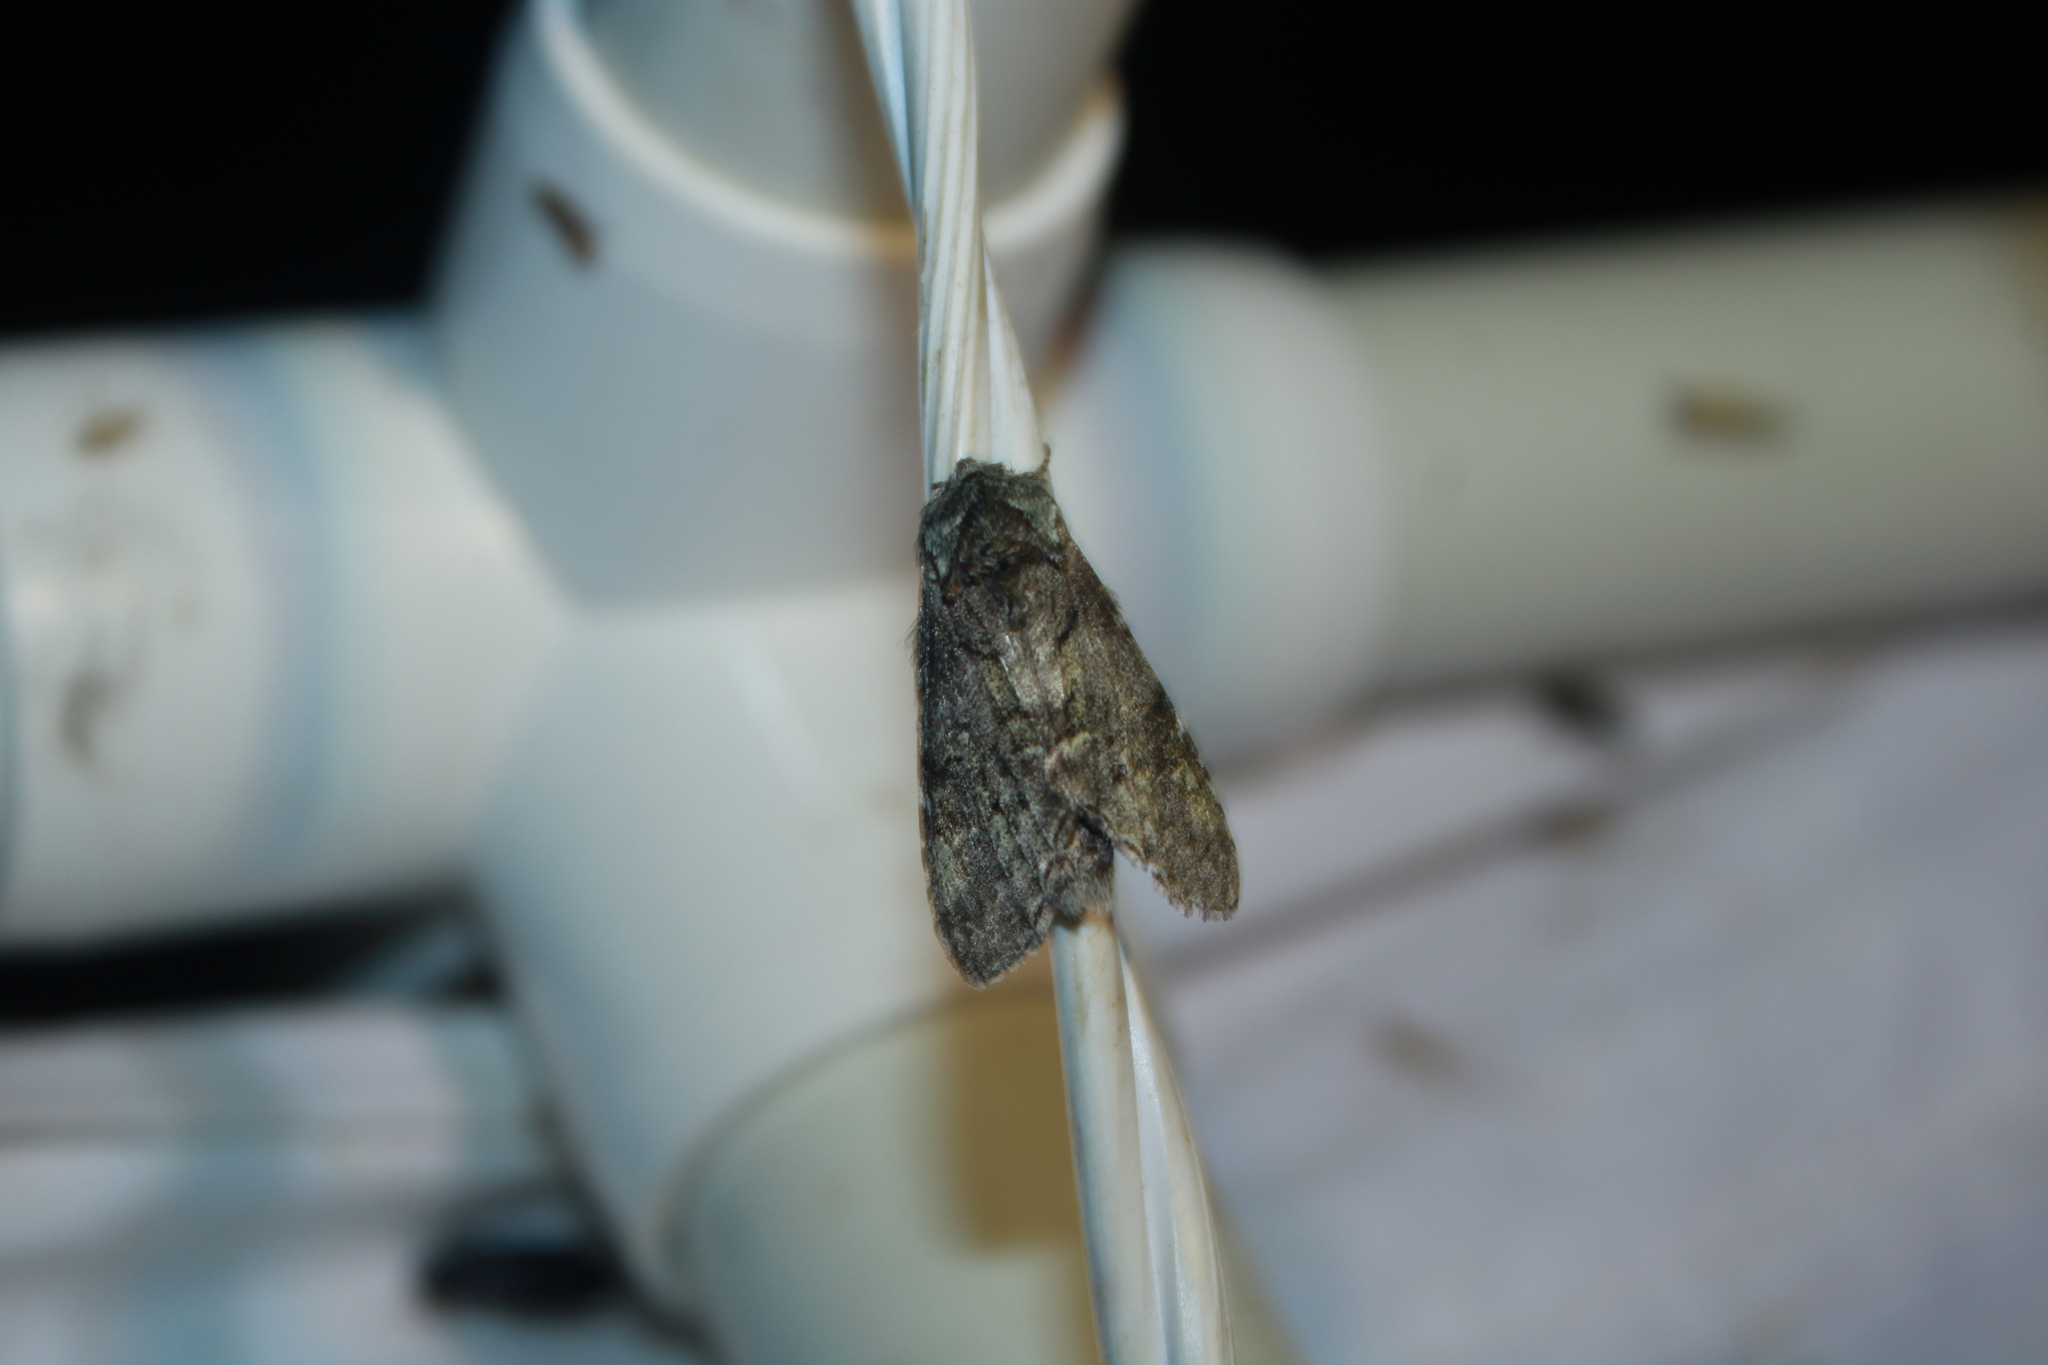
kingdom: Animalia
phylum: Arthropoda
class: Insecta
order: Lepidoptera
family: Notodontidae
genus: Macrurocampa
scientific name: Macrurocampa marthesia
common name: Mottled prominent
